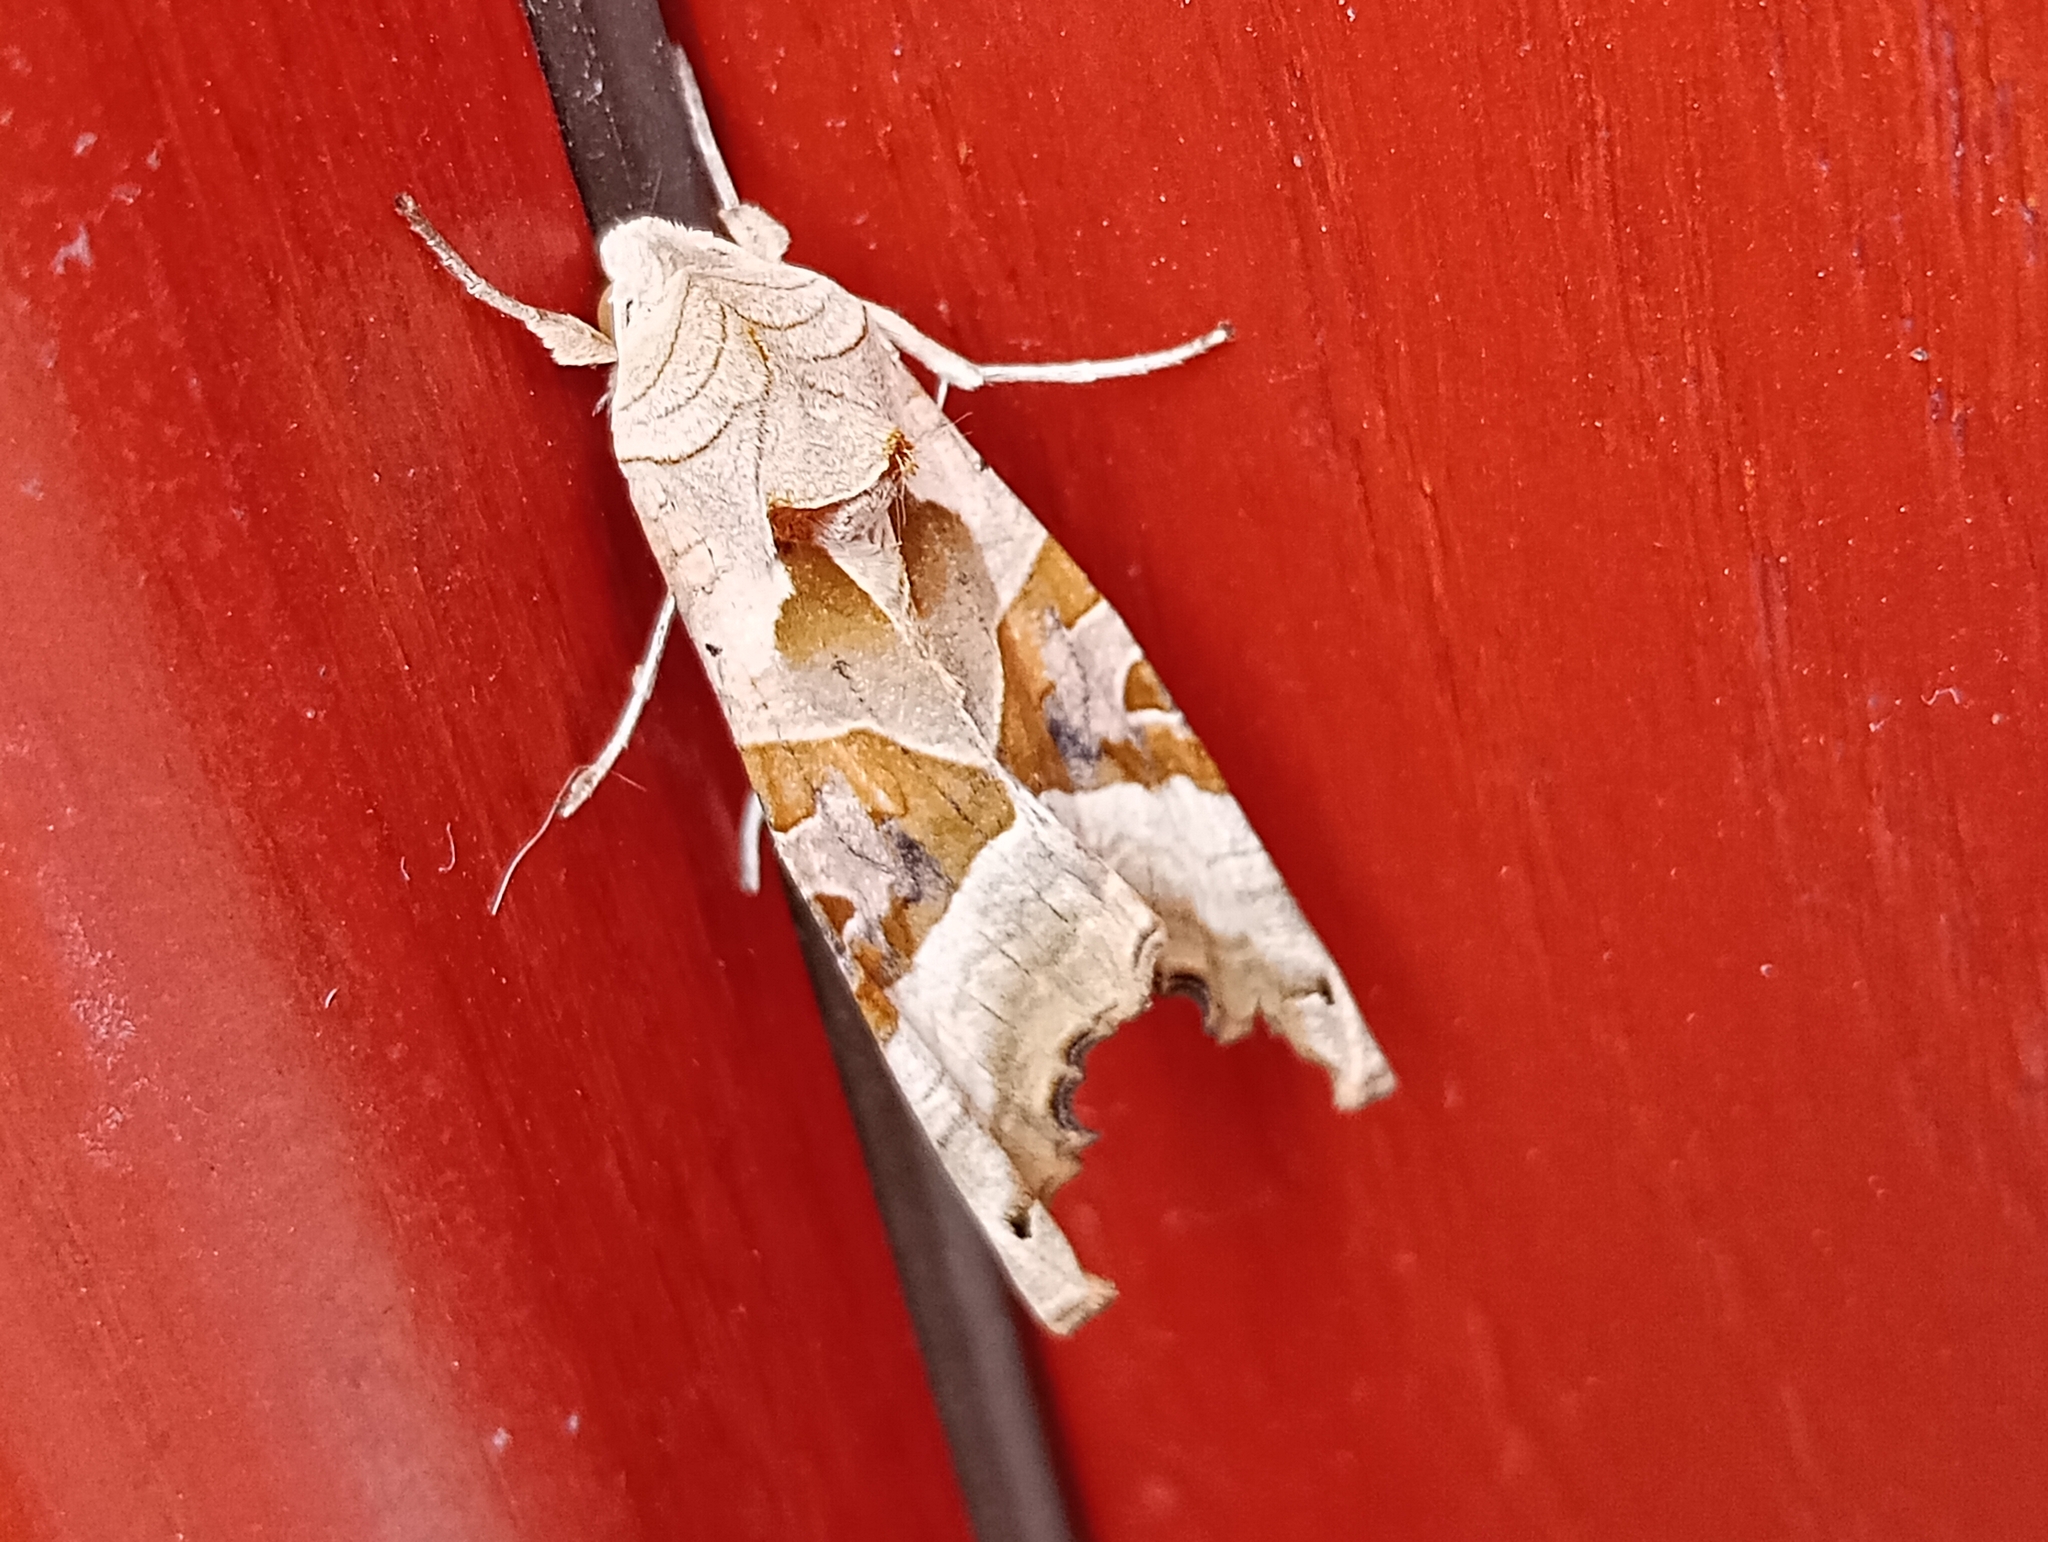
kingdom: Animalia
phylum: Arthropoda
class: Insecta
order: Lepidoptera
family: Noctuidae
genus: Phlogophora
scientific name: Phlogophora meticulosa
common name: Angle shades
